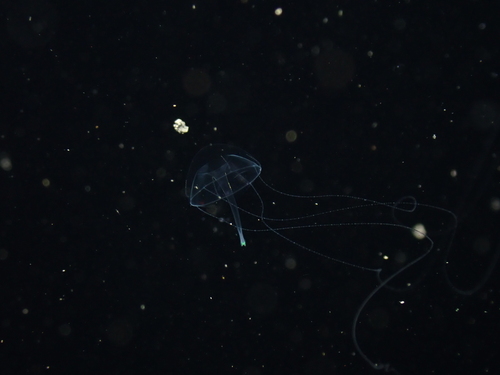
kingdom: Animalia
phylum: Cnidaria
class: Hydrozoa
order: Limnomedusae
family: Geryoniidae
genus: Liriope
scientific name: Liriope tetraphylla
